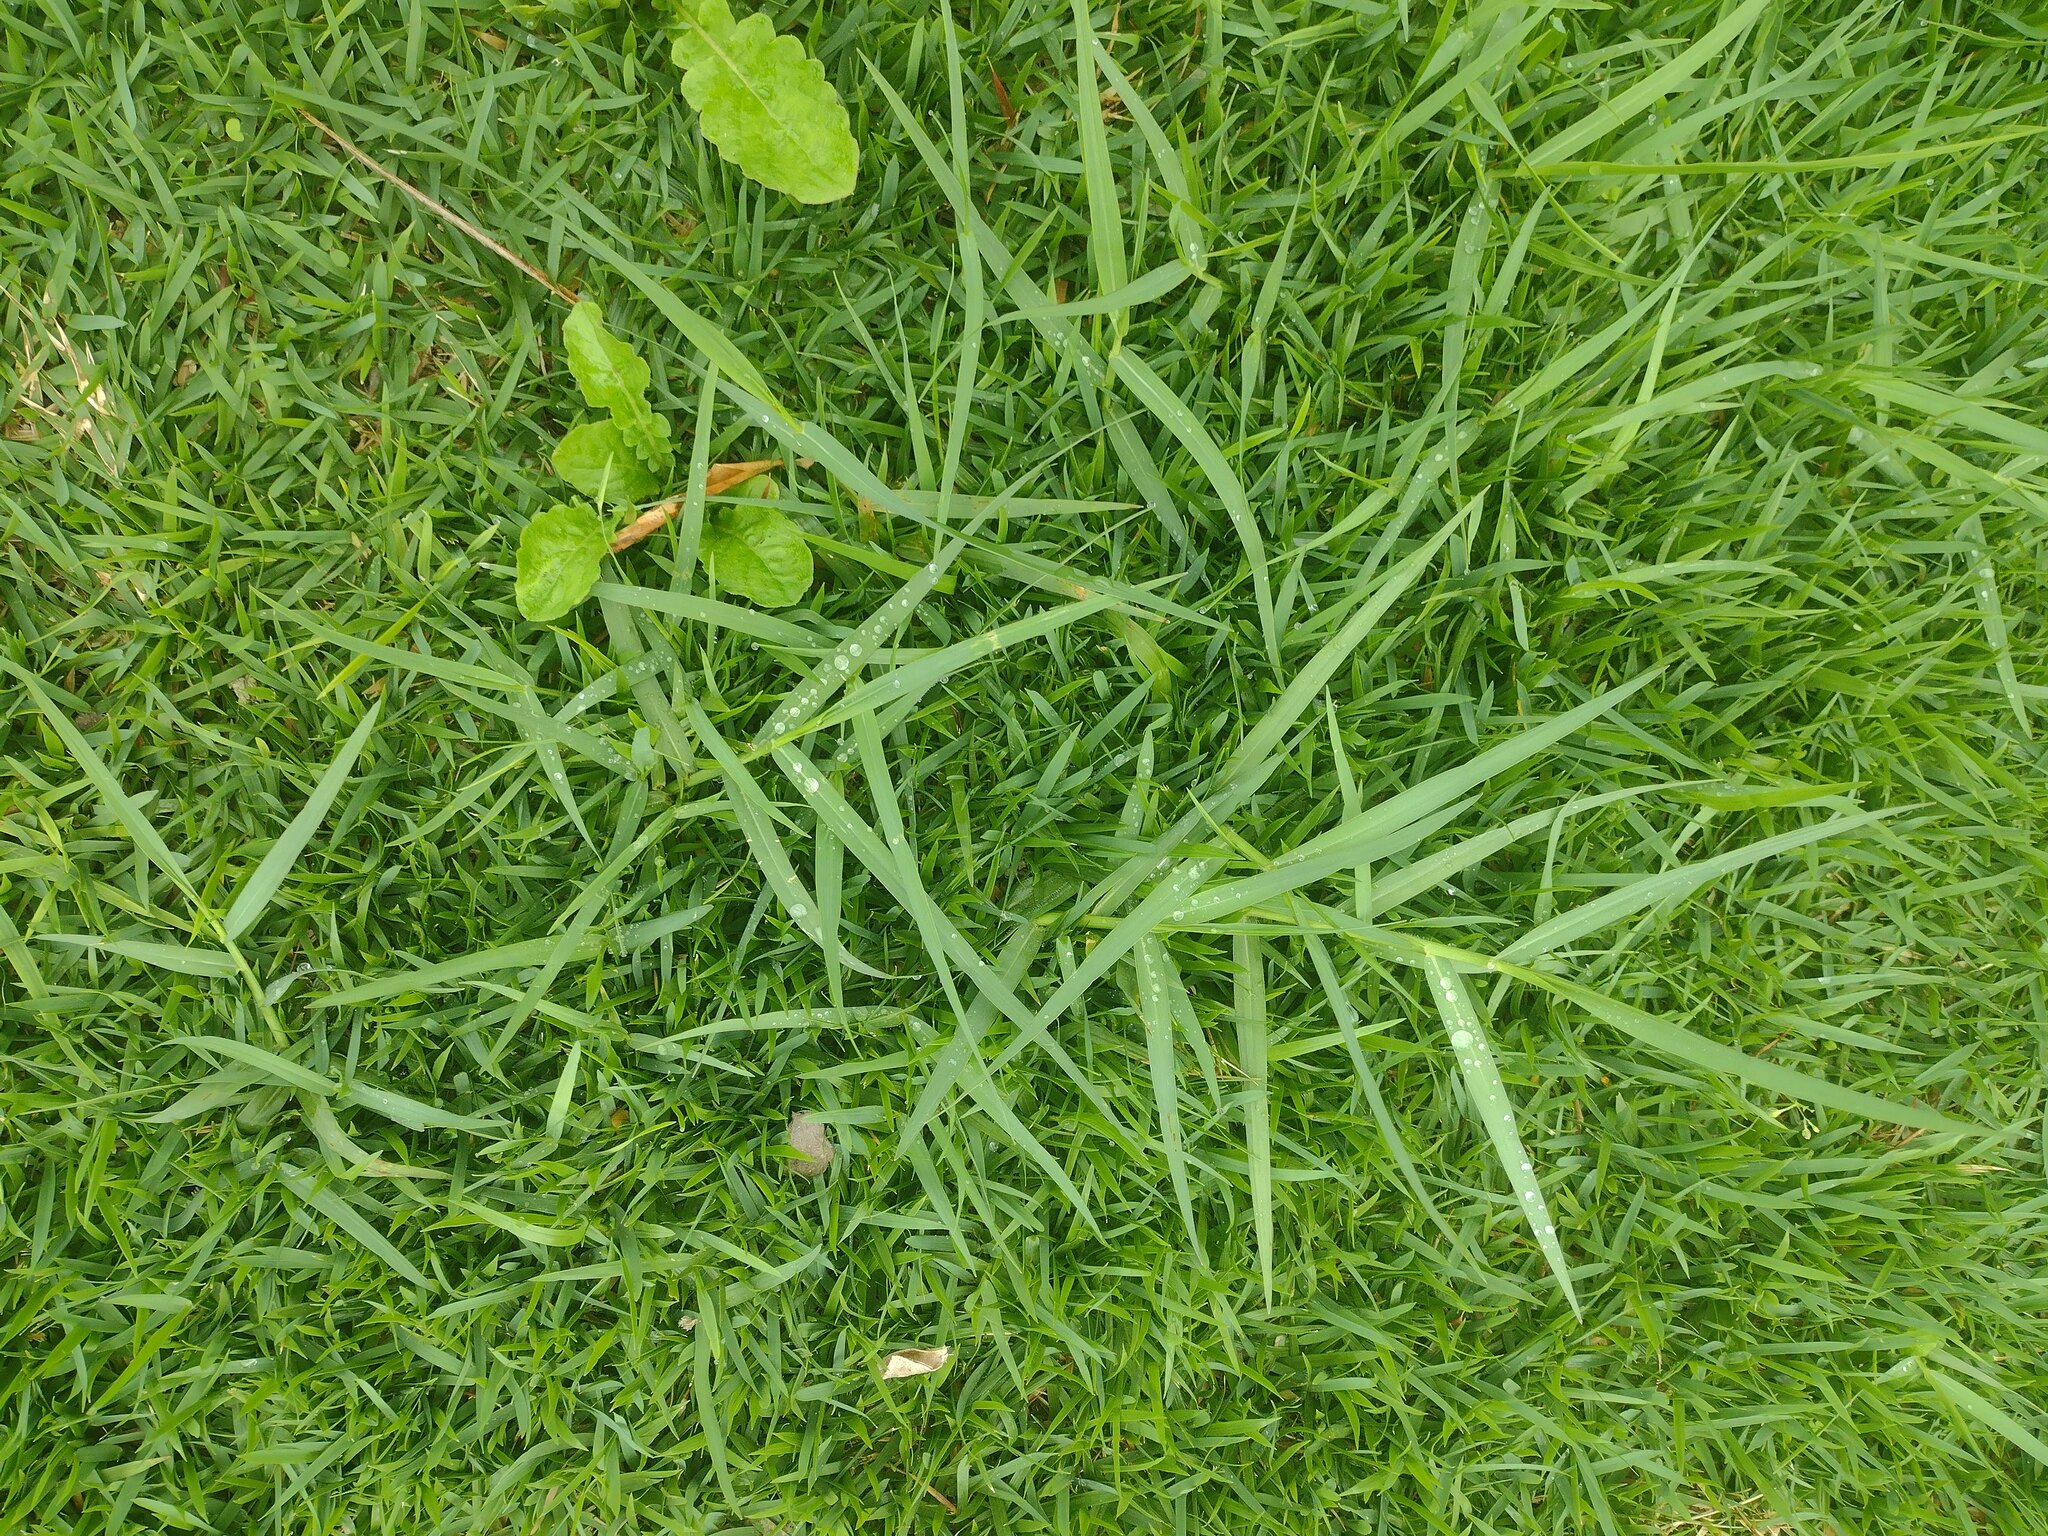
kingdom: Plantae
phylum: Tracheophyta
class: Liliopsida
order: Poales
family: Poaceae
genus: Panicum
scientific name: Panicum repens
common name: Torpedo grass
